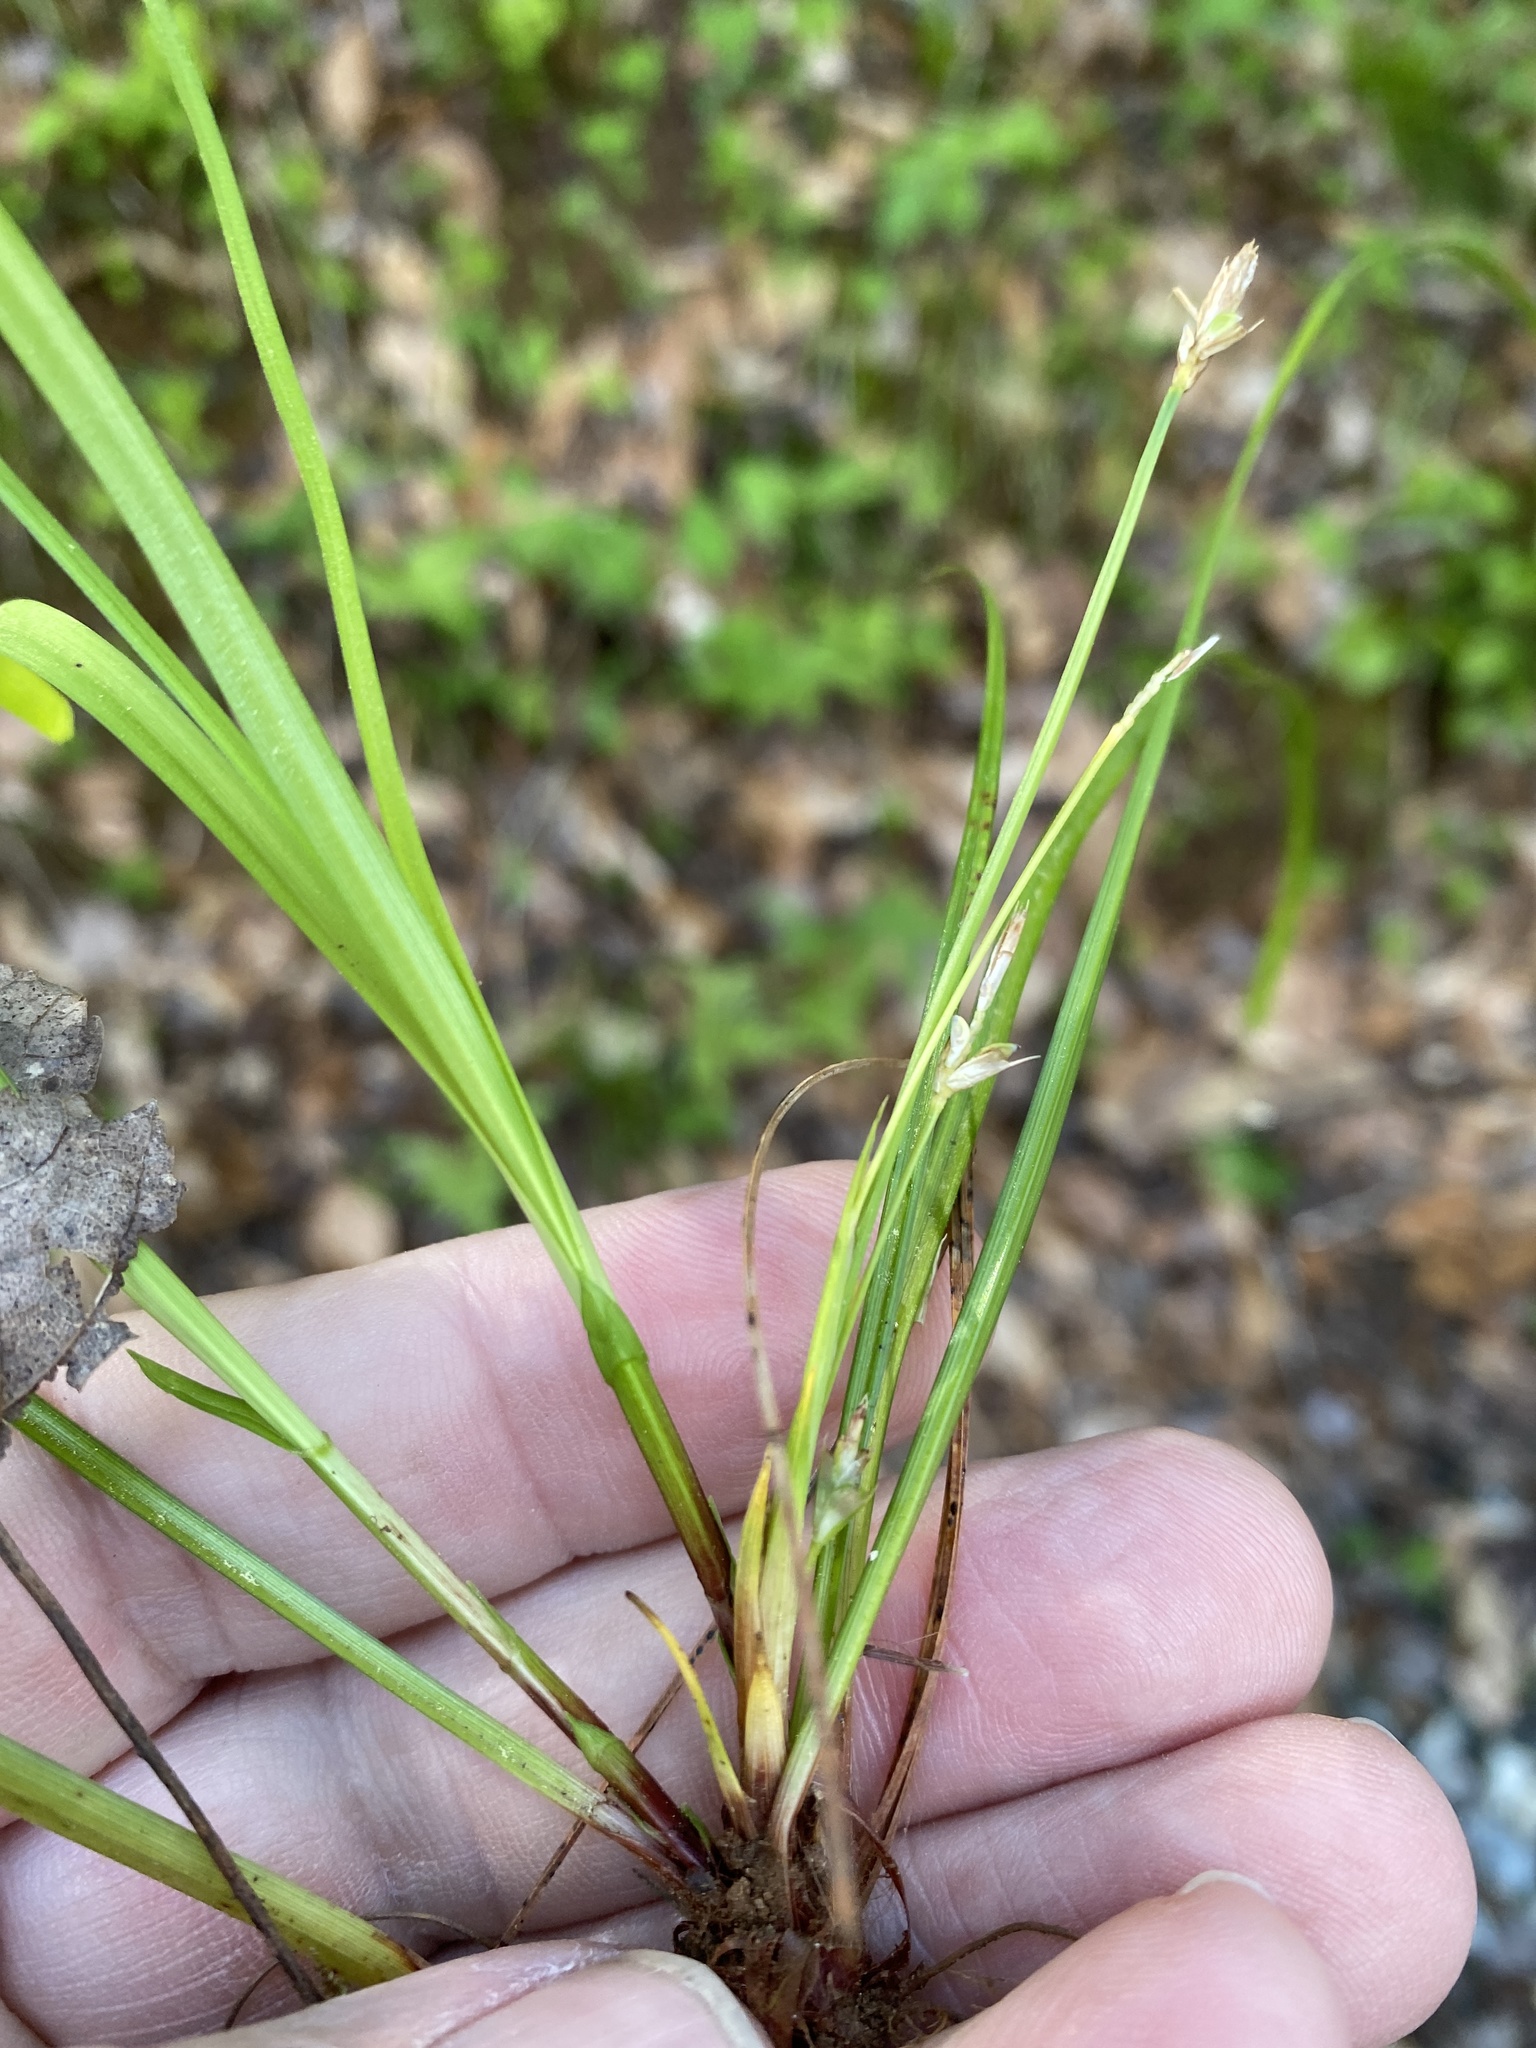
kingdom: Plantae
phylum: Tracheophyta
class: Liliopsida
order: Poales
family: Cyperaceae
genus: Carex
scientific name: Carex pedunculata
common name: Pedunculate sedge
